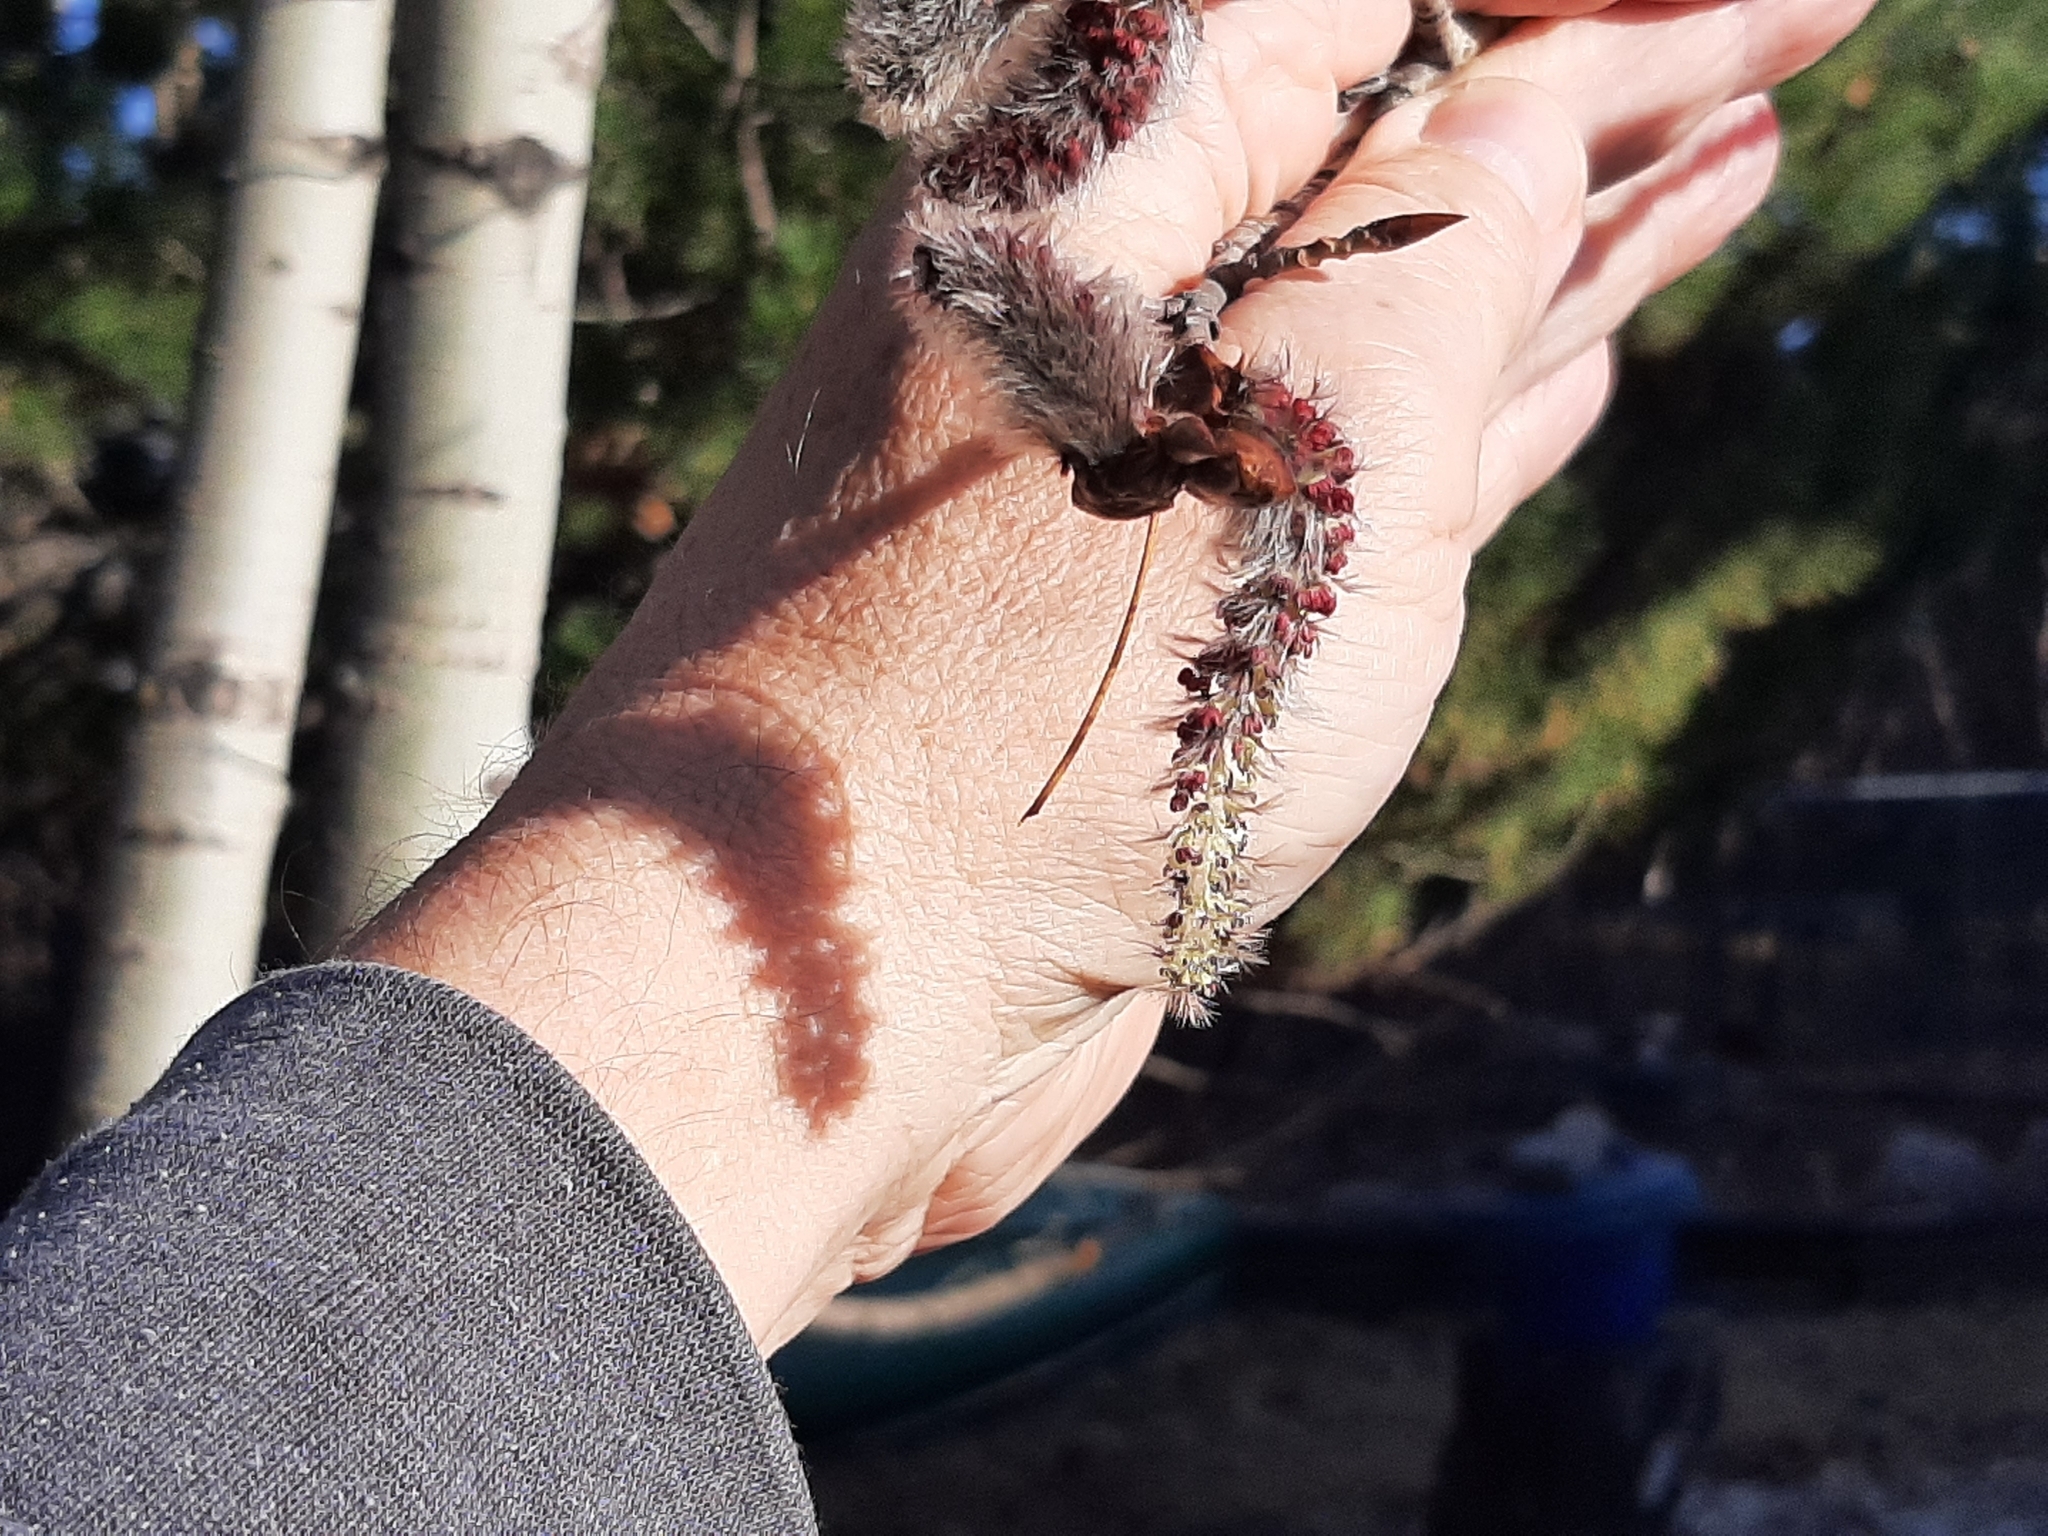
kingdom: Plantae
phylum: Tracheophyta
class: Magnoliopsida
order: Malpighiales
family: Salicaceae
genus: Populus
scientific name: Populus tremuloides
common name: Quaking aspen
